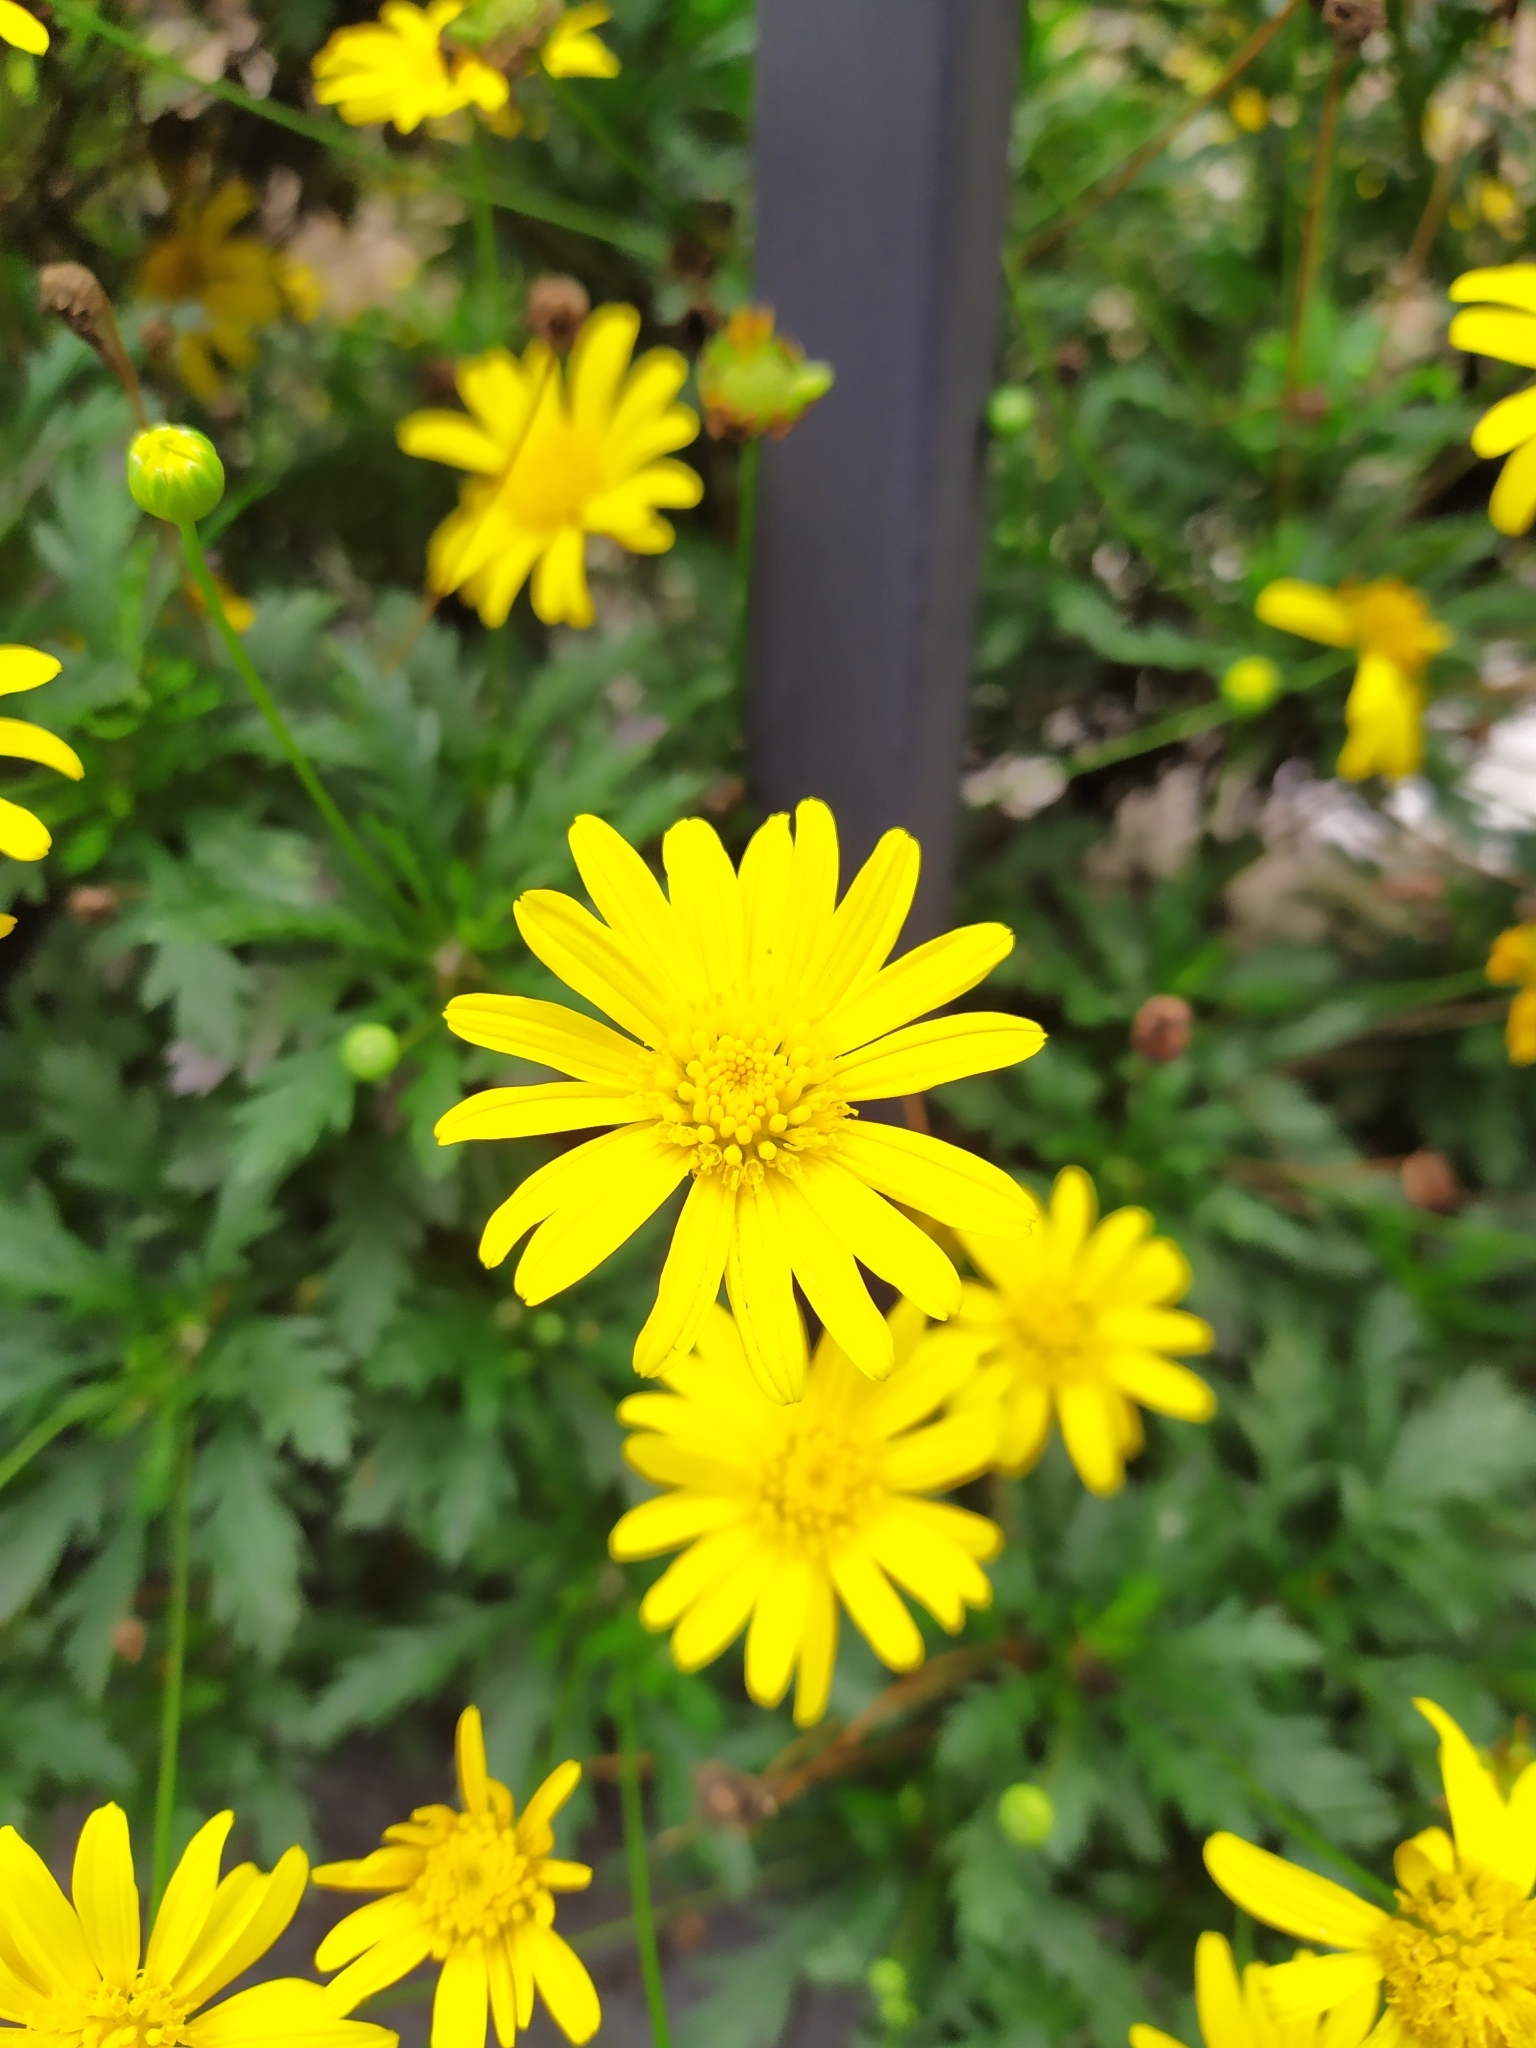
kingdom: Plantae
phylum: Tracheophyta
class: Magnoliopsida
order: Asterales
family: Asteraceae
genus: Euryops
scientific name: Euryops pectinatus
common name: Gray-leaf euryops
